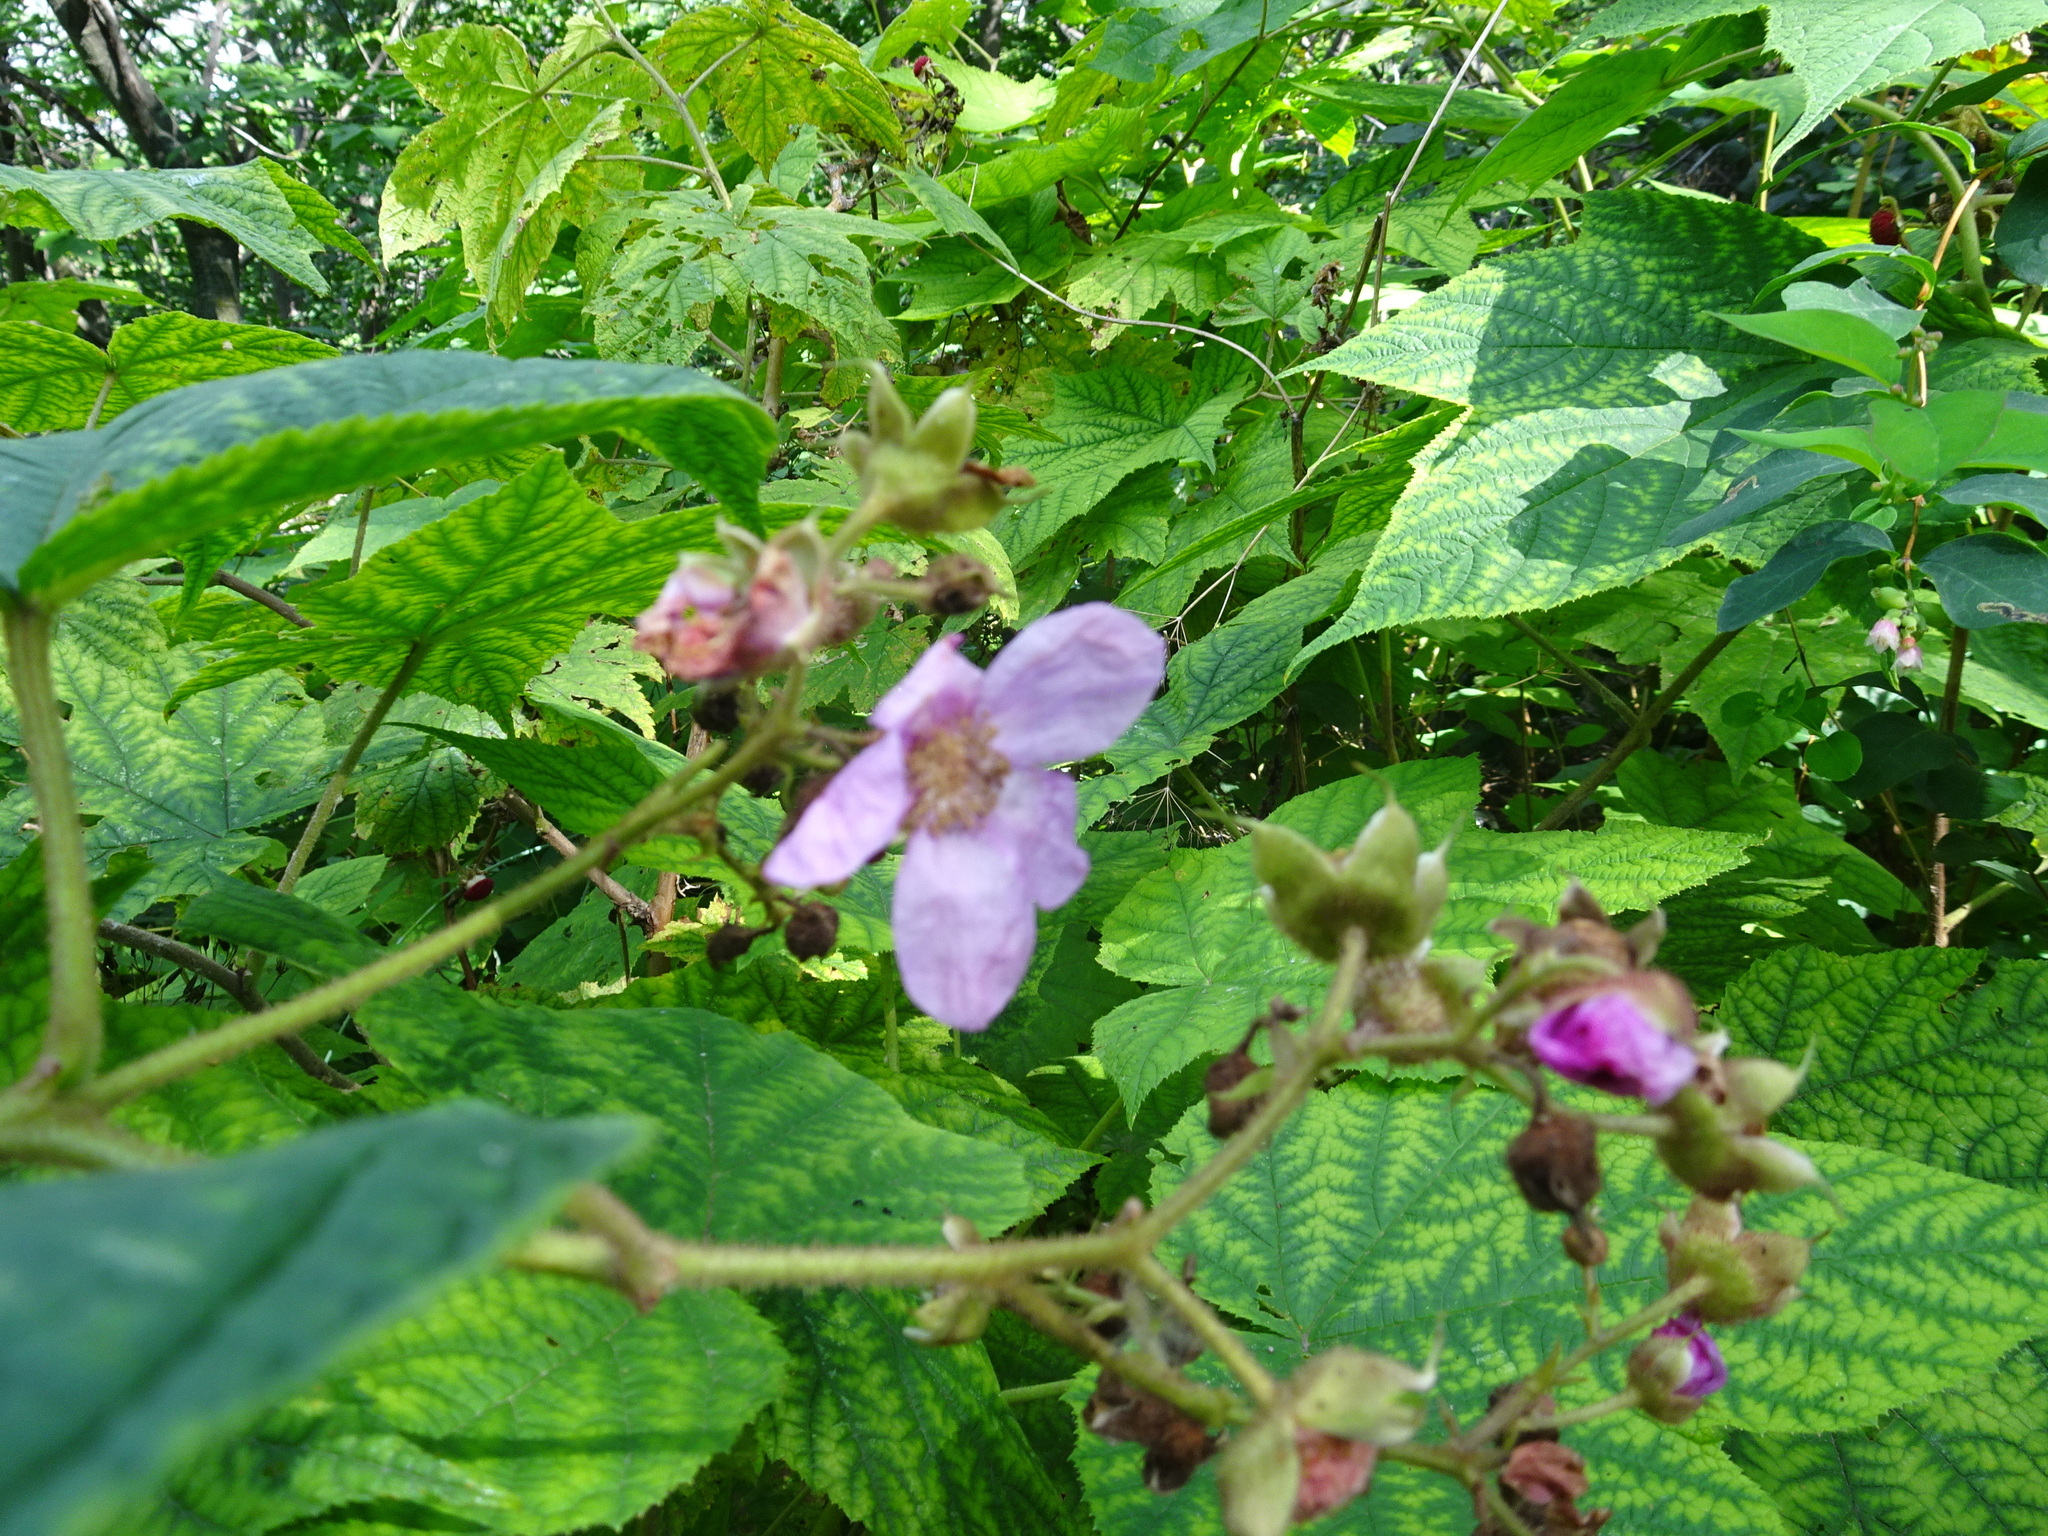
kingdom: Plantae
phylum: Tracheophyta
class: Magnoliopsida
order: Rosales
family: Rosaceae
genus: Rubus
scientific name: Rubus odoratus
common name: Purple-flowered raspberry
